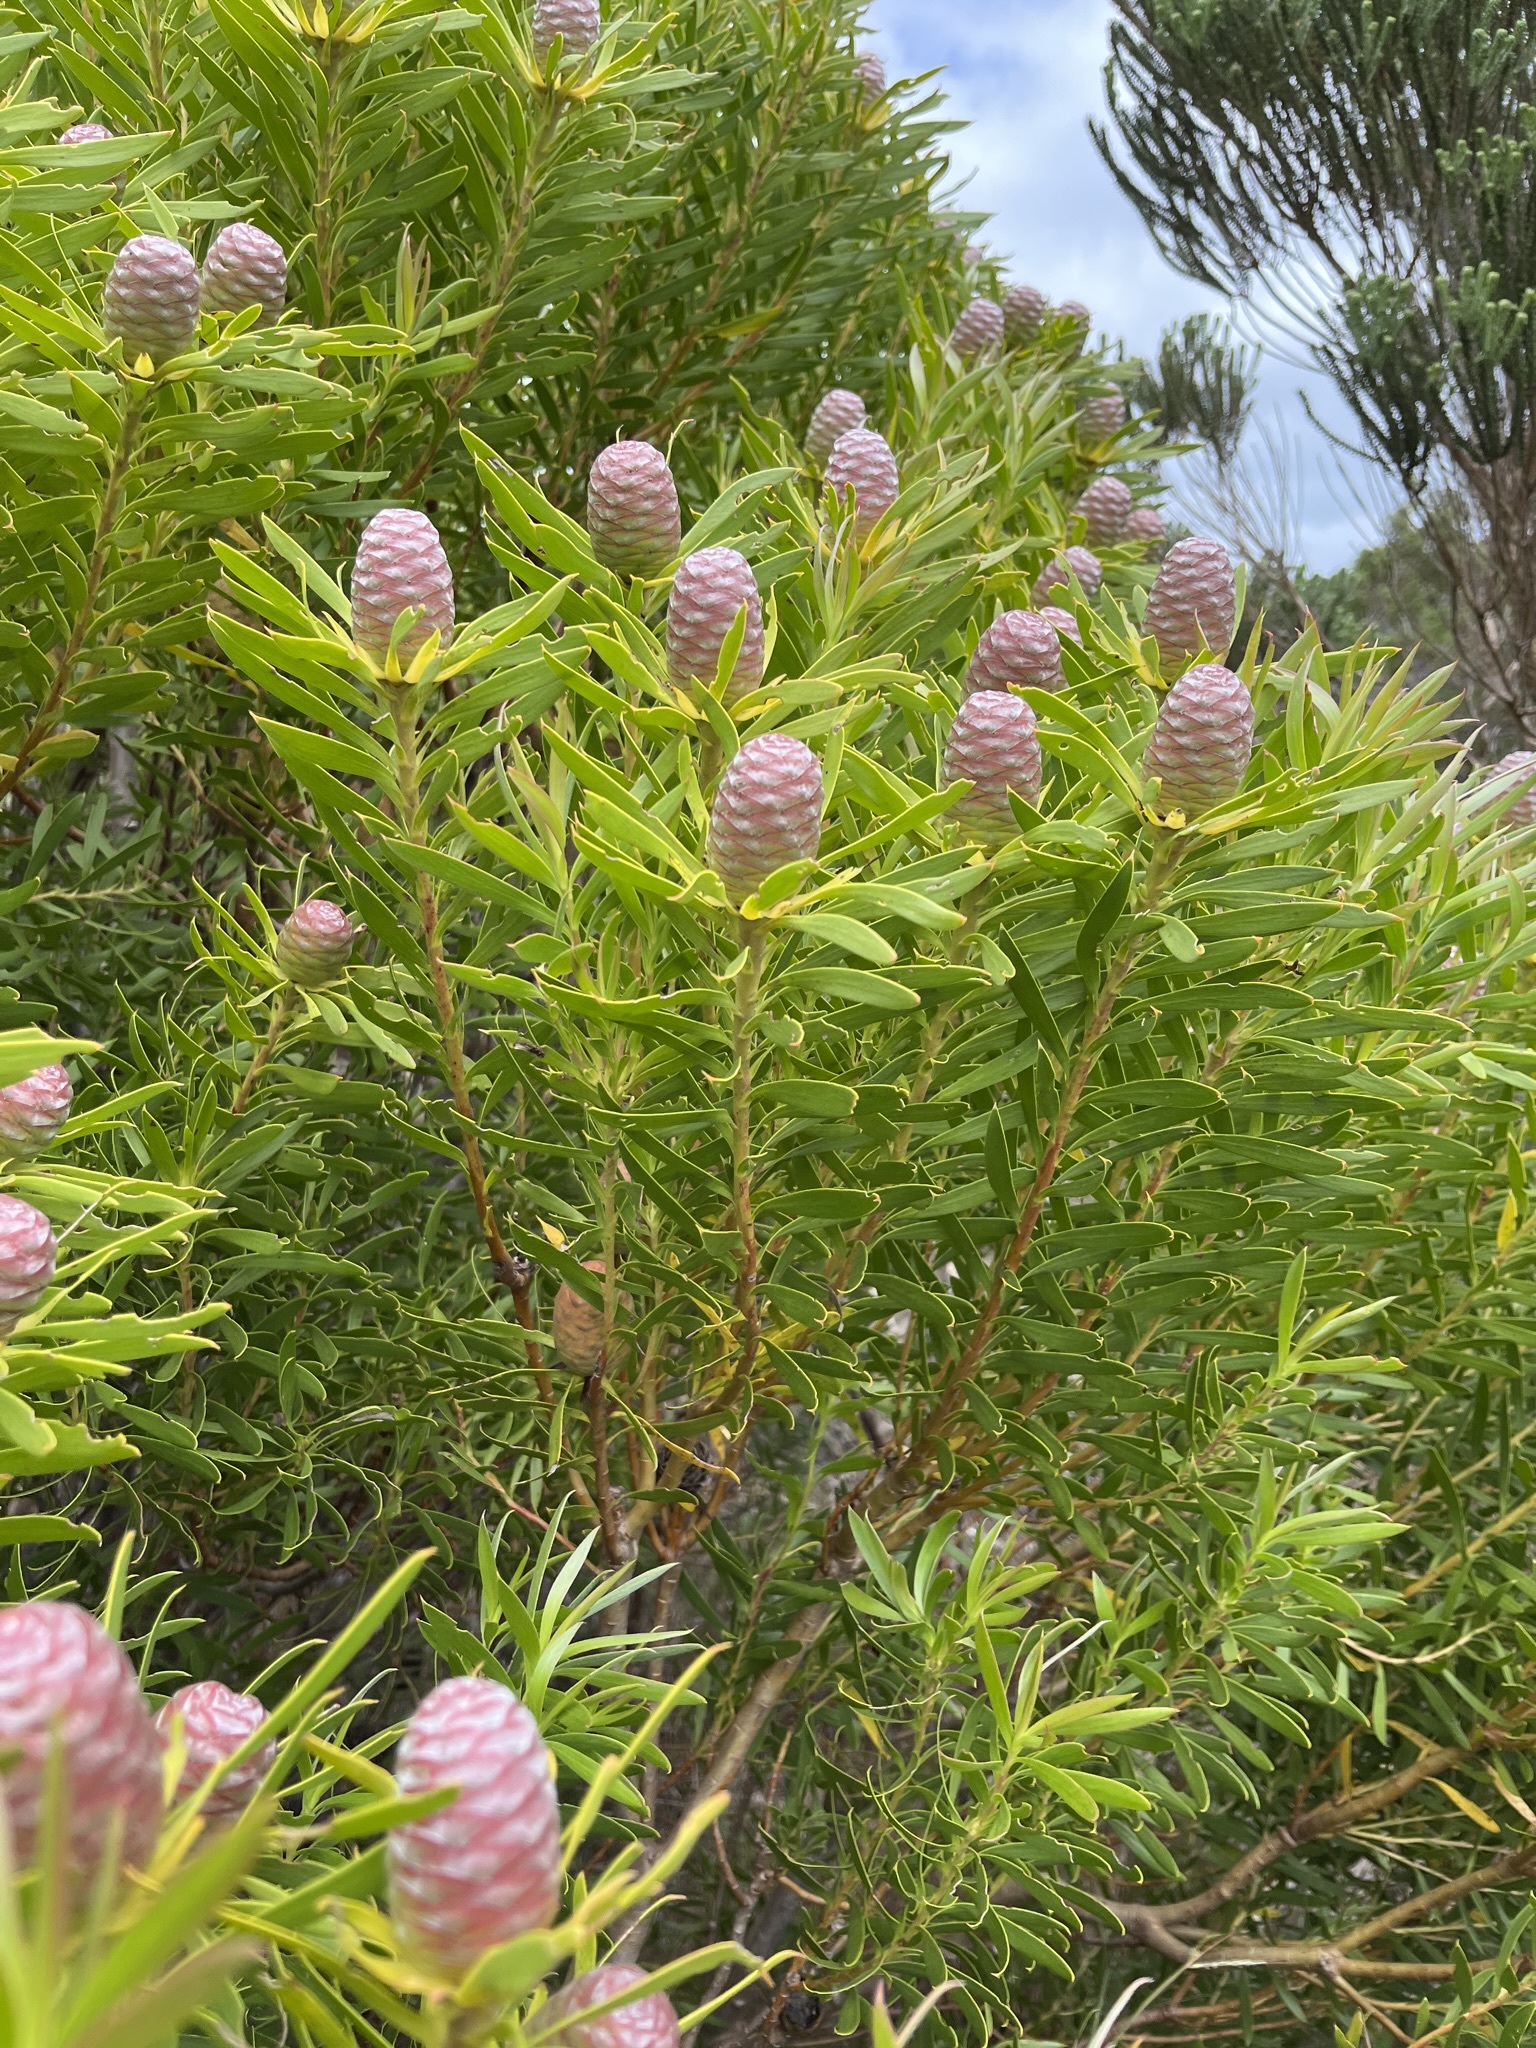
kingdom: Plantae
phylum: Tracheophyta
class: Magnoliopsida
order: Proteales
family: Proteaceae
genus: Leucadendron
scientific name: Leucadendron coniferum
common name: Dune conebush
